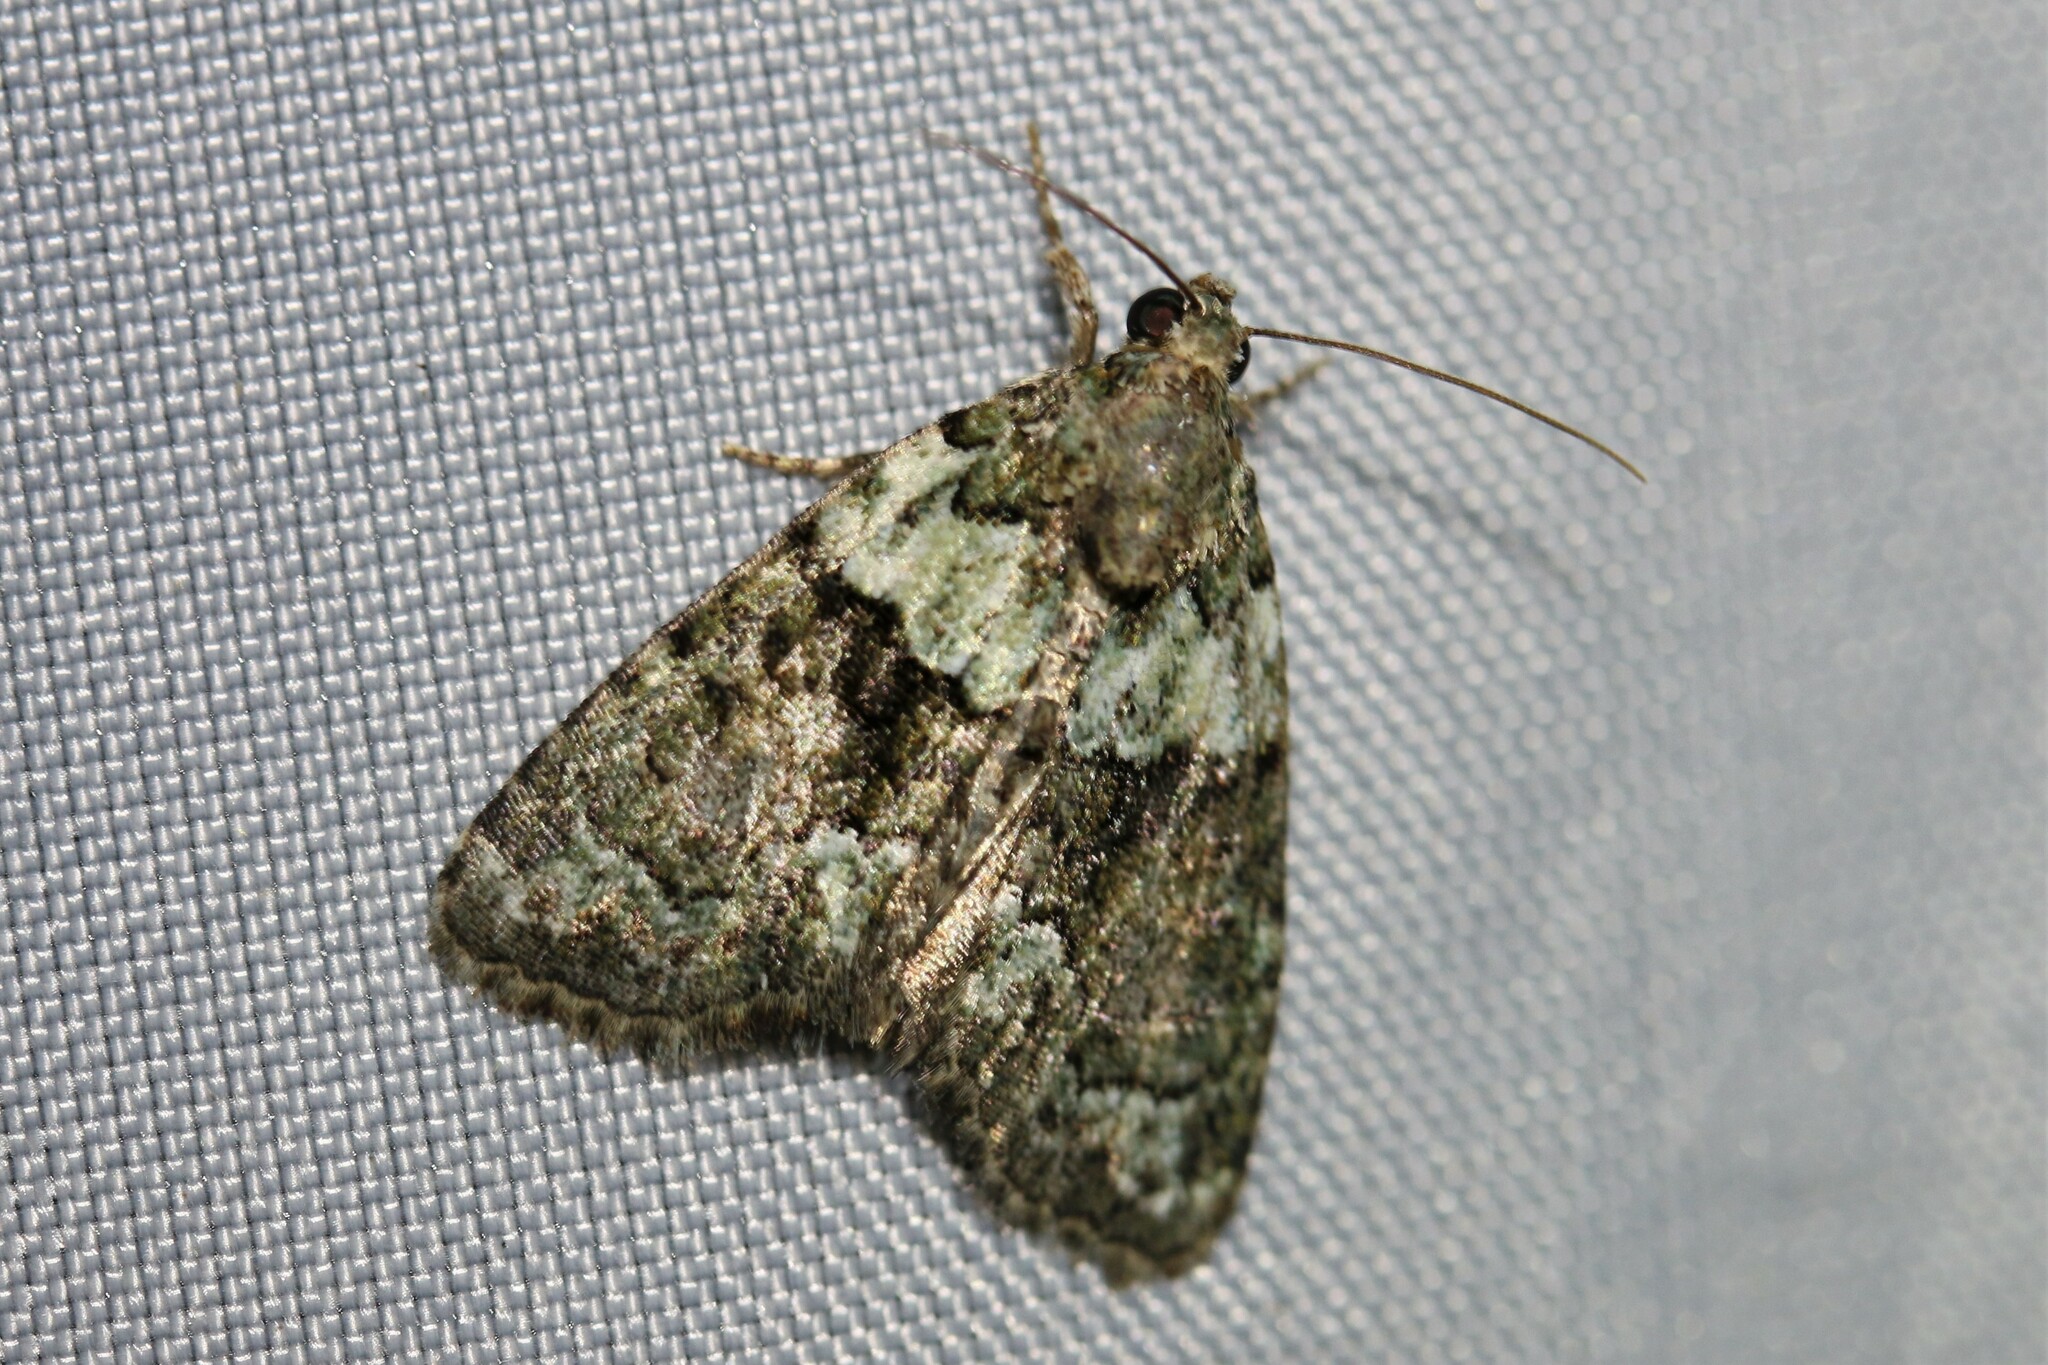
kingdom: Animalia
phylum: Arthropoda
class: Insecta
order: Lepidoptera
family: Noctuidae
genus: Cryphia
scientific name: Cryphia algae
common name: Tree-lichen beauty
